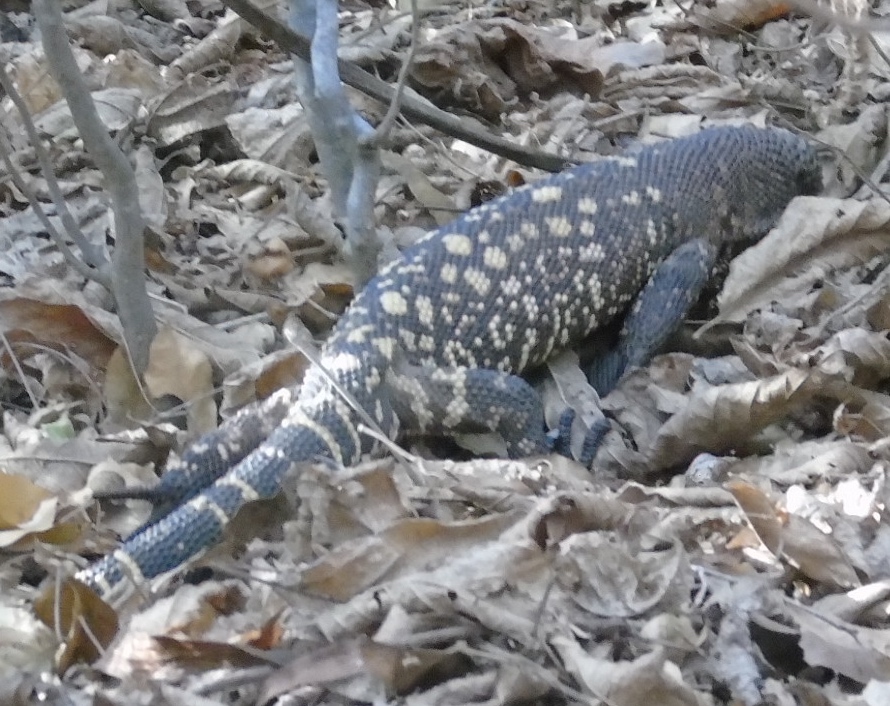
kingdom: Animalia
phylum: Chordata
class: Squamata
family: Helodermatidae
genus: Heloderma
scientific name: Heloderma horridum
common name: Mexican beaded lizard
